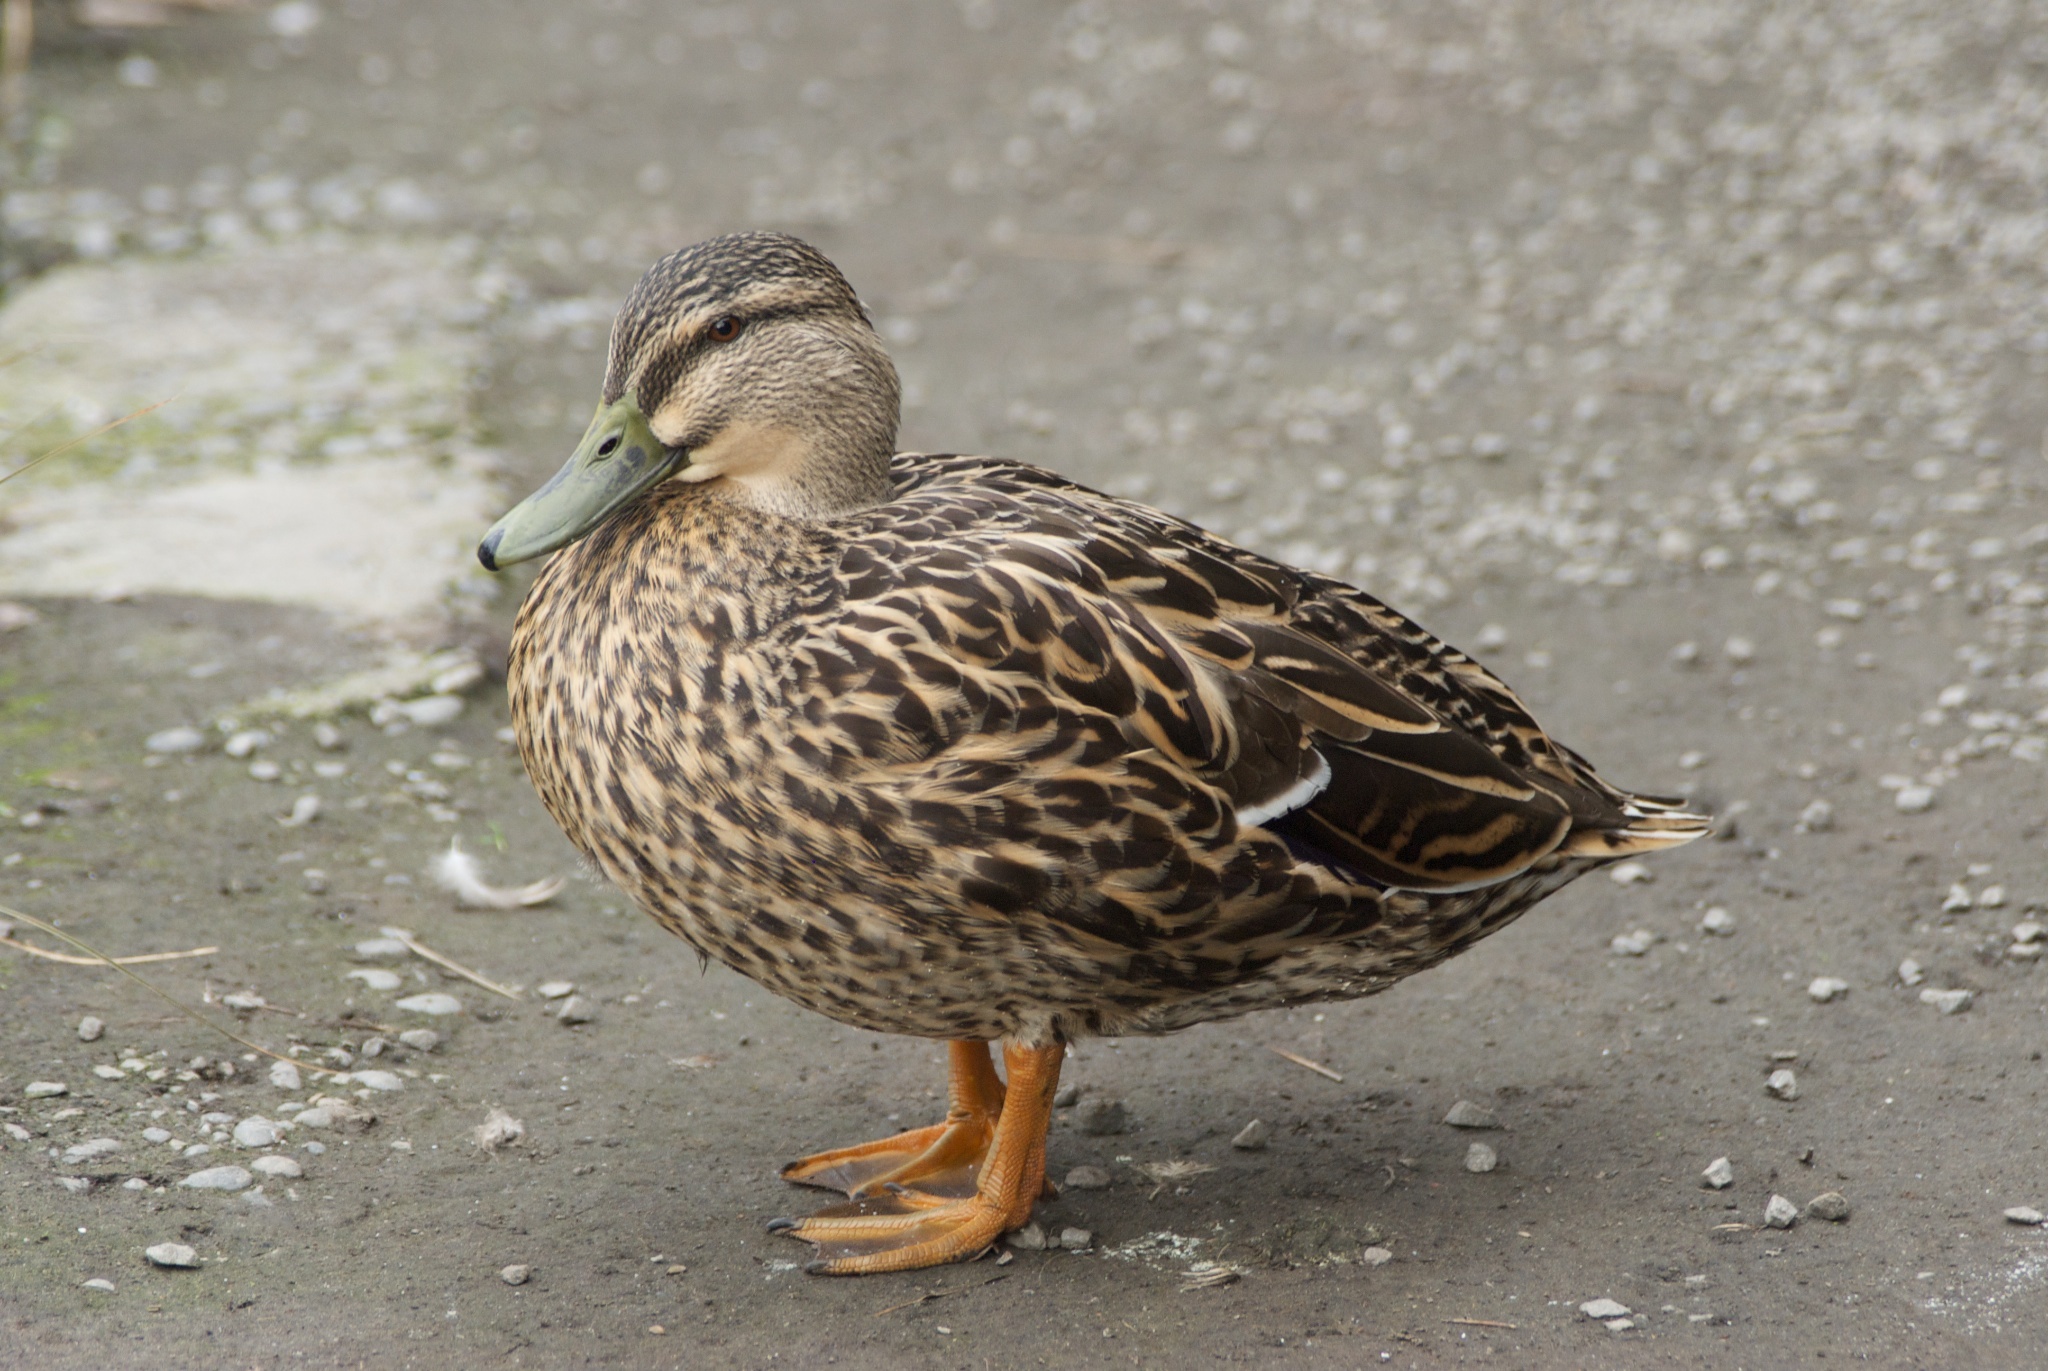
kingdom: Animalia
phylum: Chordata
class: Aves
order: Anseriformes
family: Anatidae
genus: Anas
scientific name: Anas platyrhynchos
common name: Mallard
